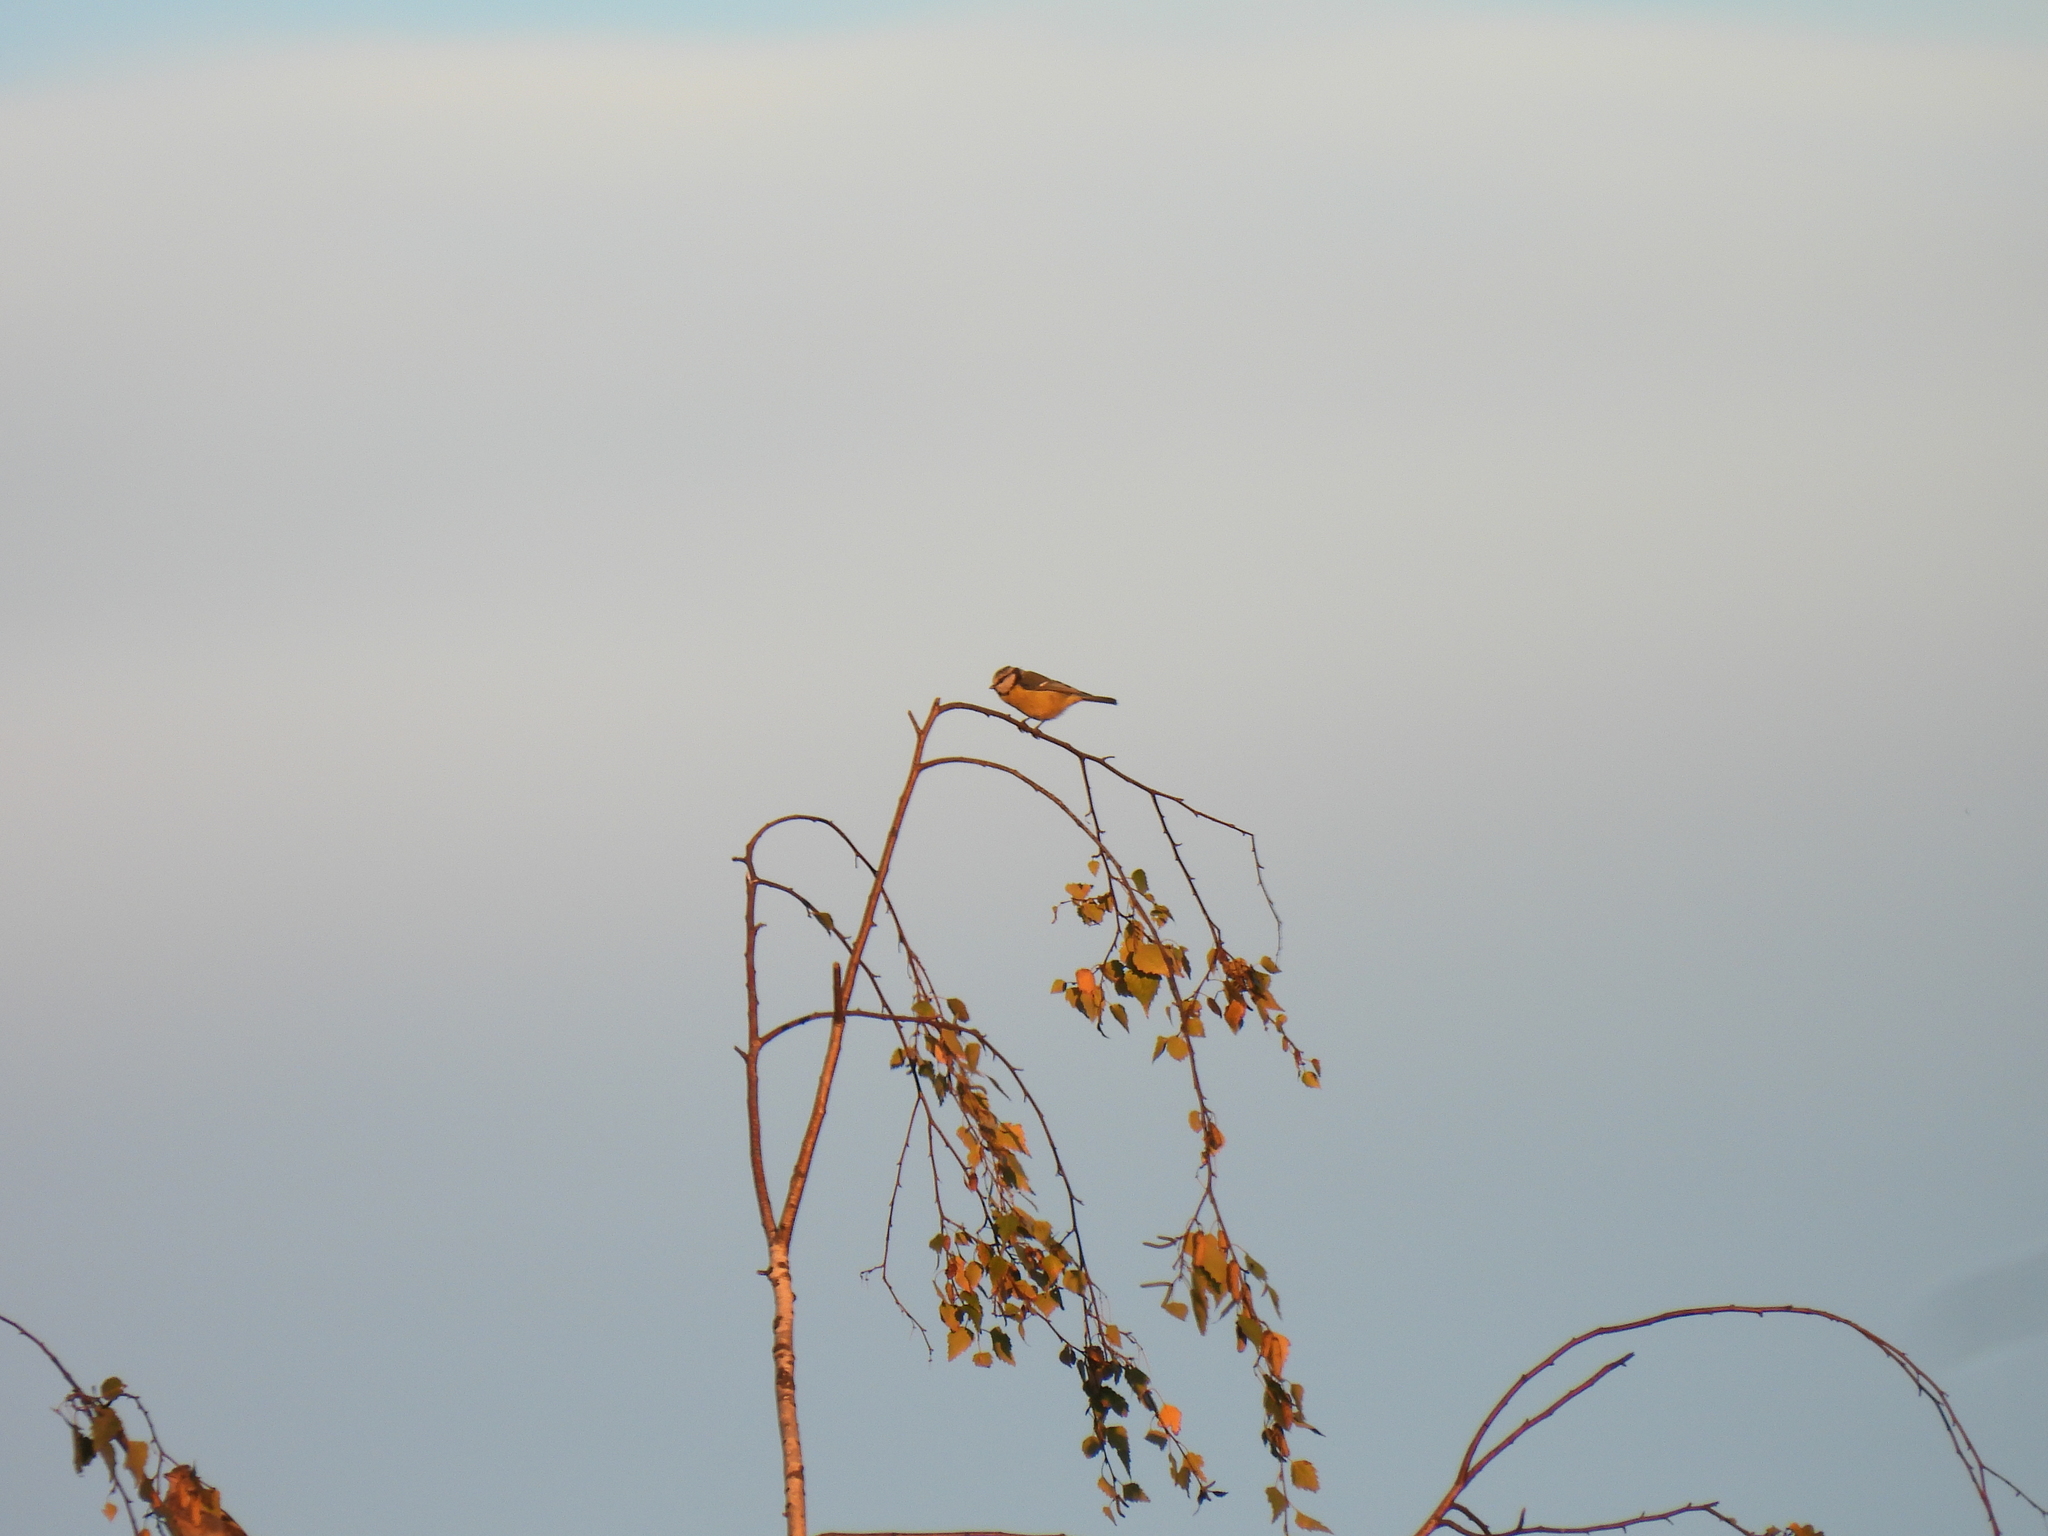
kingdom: Animalia
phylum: Chordata
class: Aves
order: Passeriformes
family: Paridae
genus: Cyanistes
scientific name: Cyanistes caeruleus
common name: Eurasian blue tit
